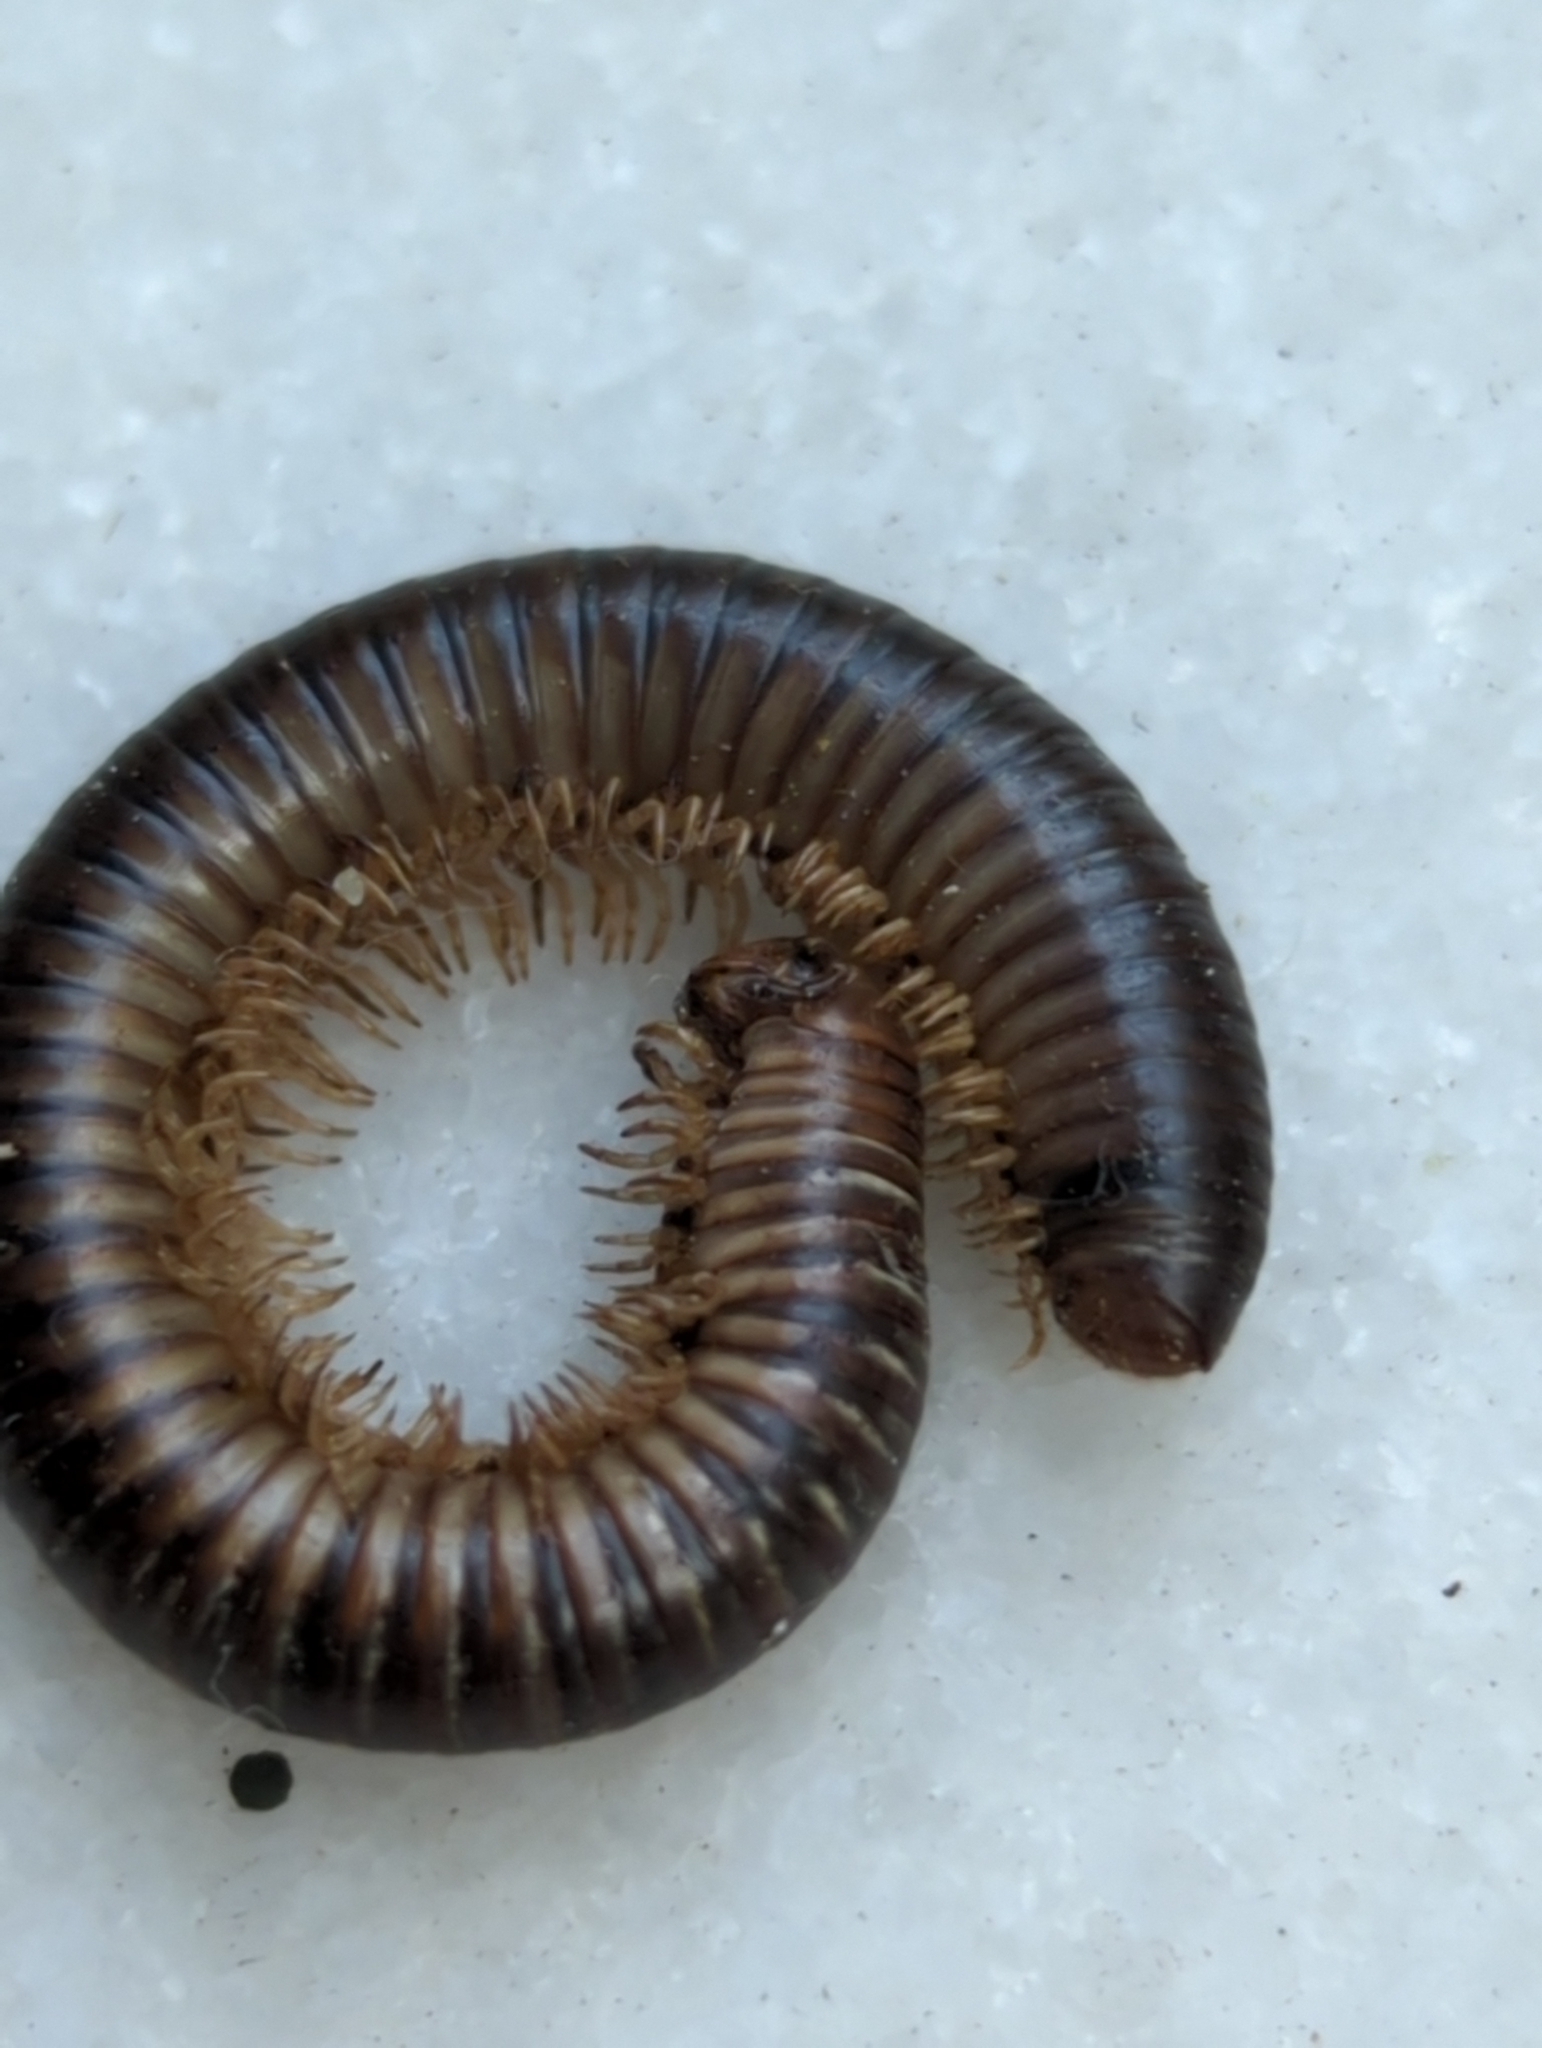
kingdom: Animalia
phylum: Arthropoda
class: Diplopoda
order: Julida
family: Julidae
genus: Pachyiulus
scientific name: Pachyiulus flavipes
